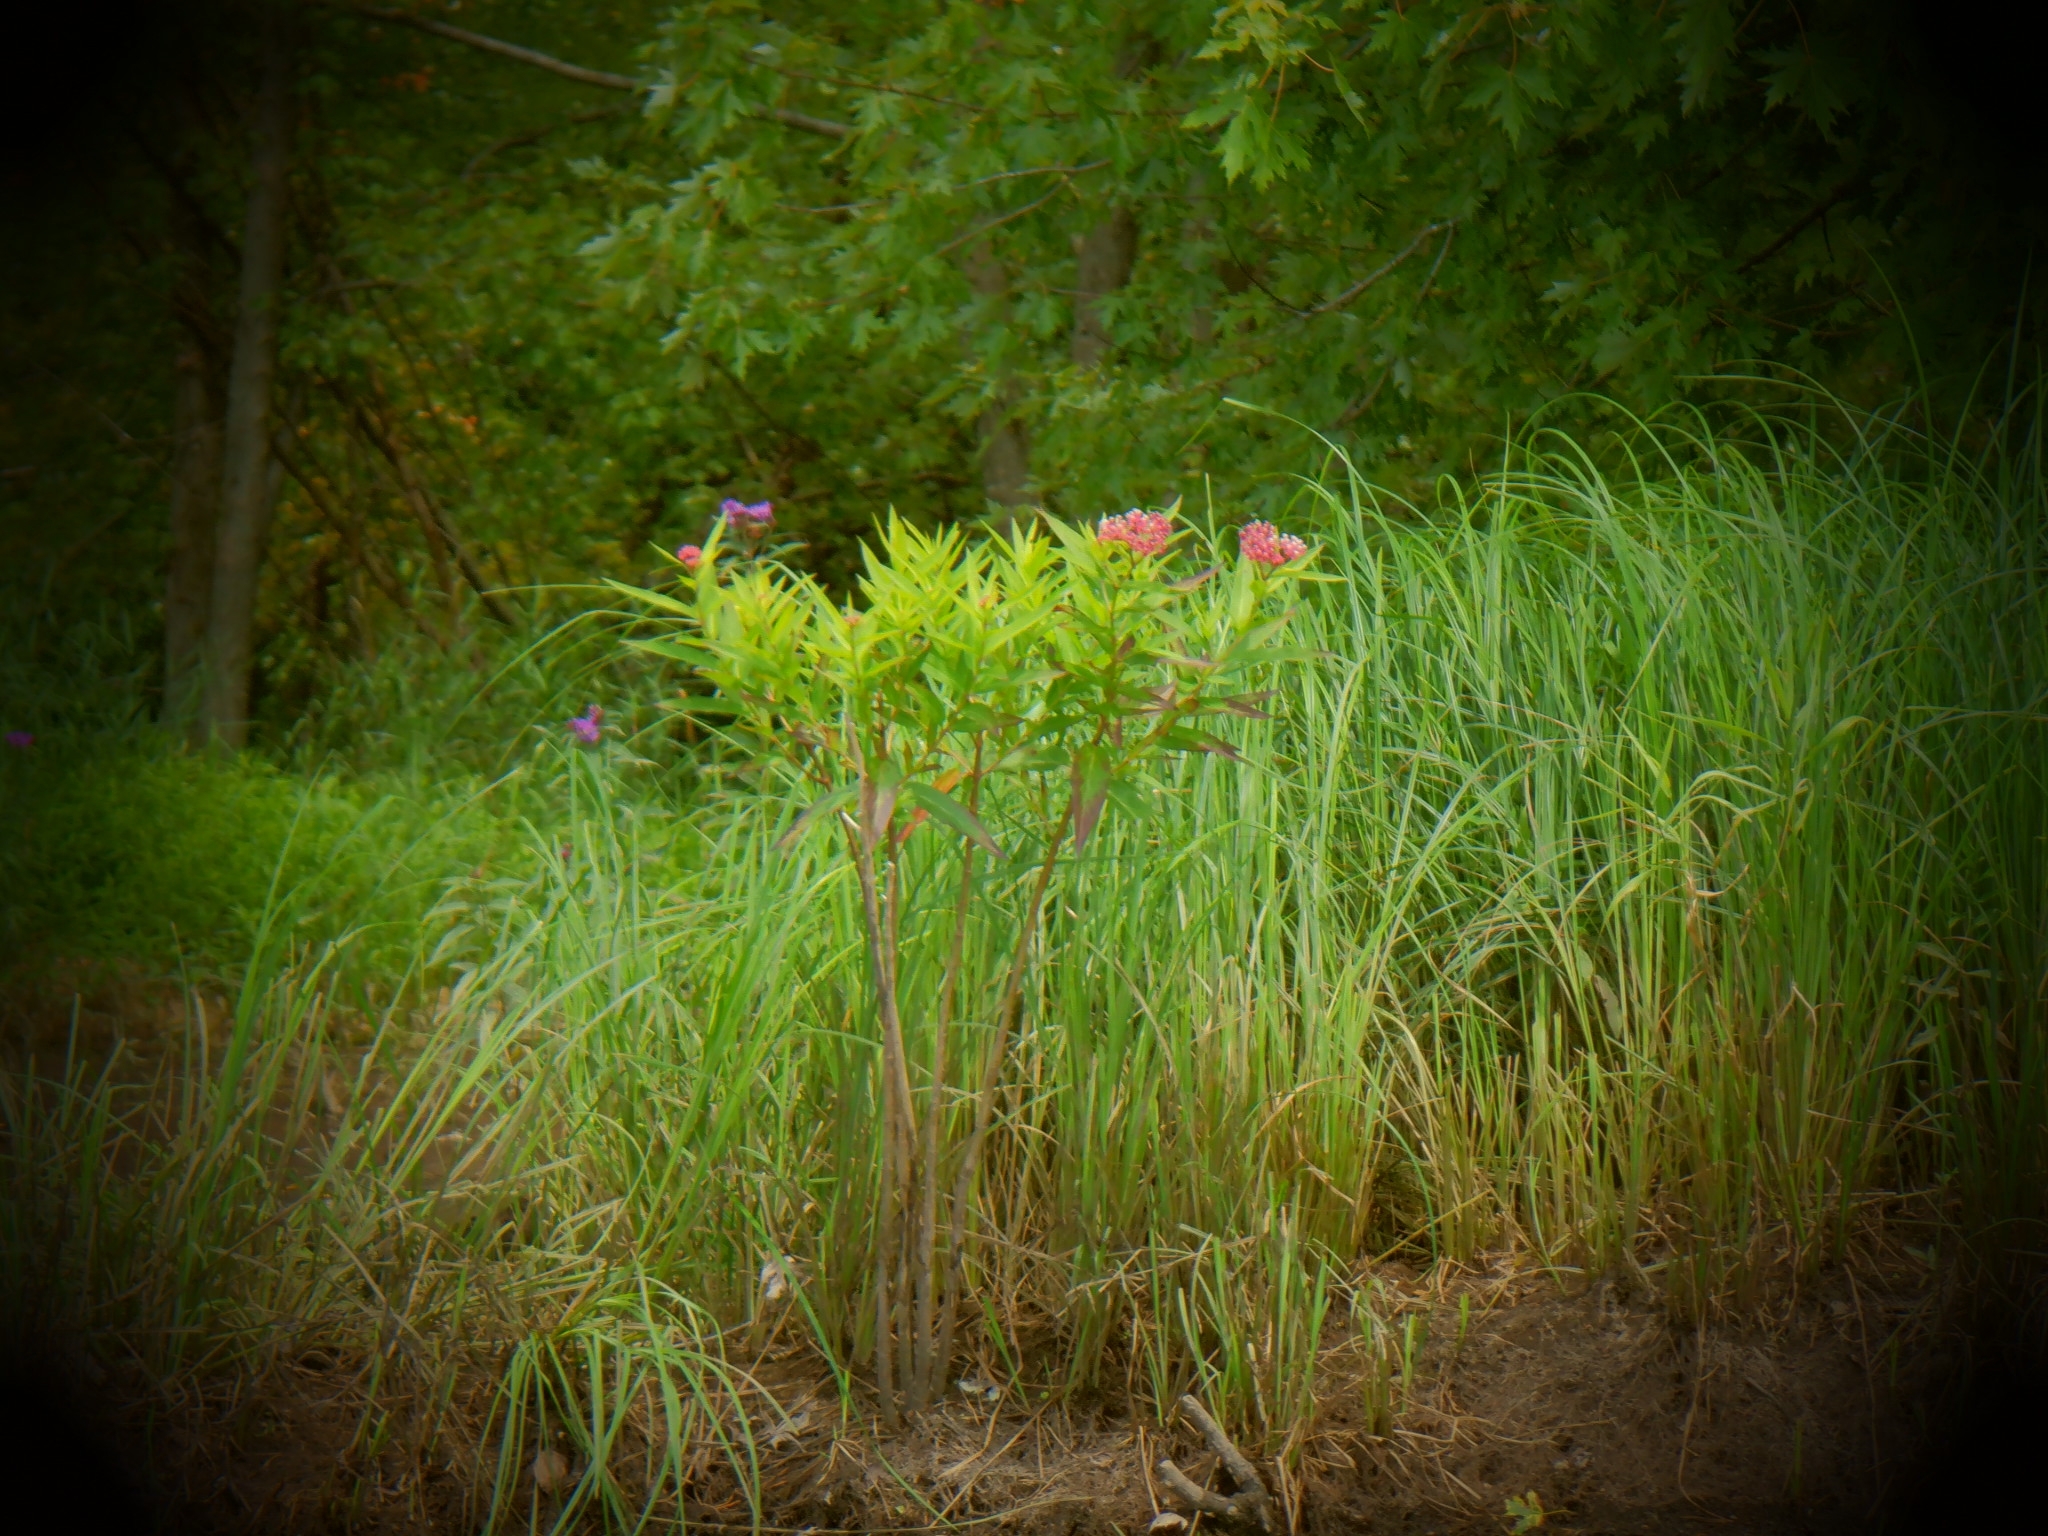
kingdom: Plantae
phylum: Tracheophyta
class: Magnoliopsida
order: Gentianales
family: Apocynaceae
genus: Asclepias
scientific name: Asclepias incarnata
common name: Swamp milkweed
